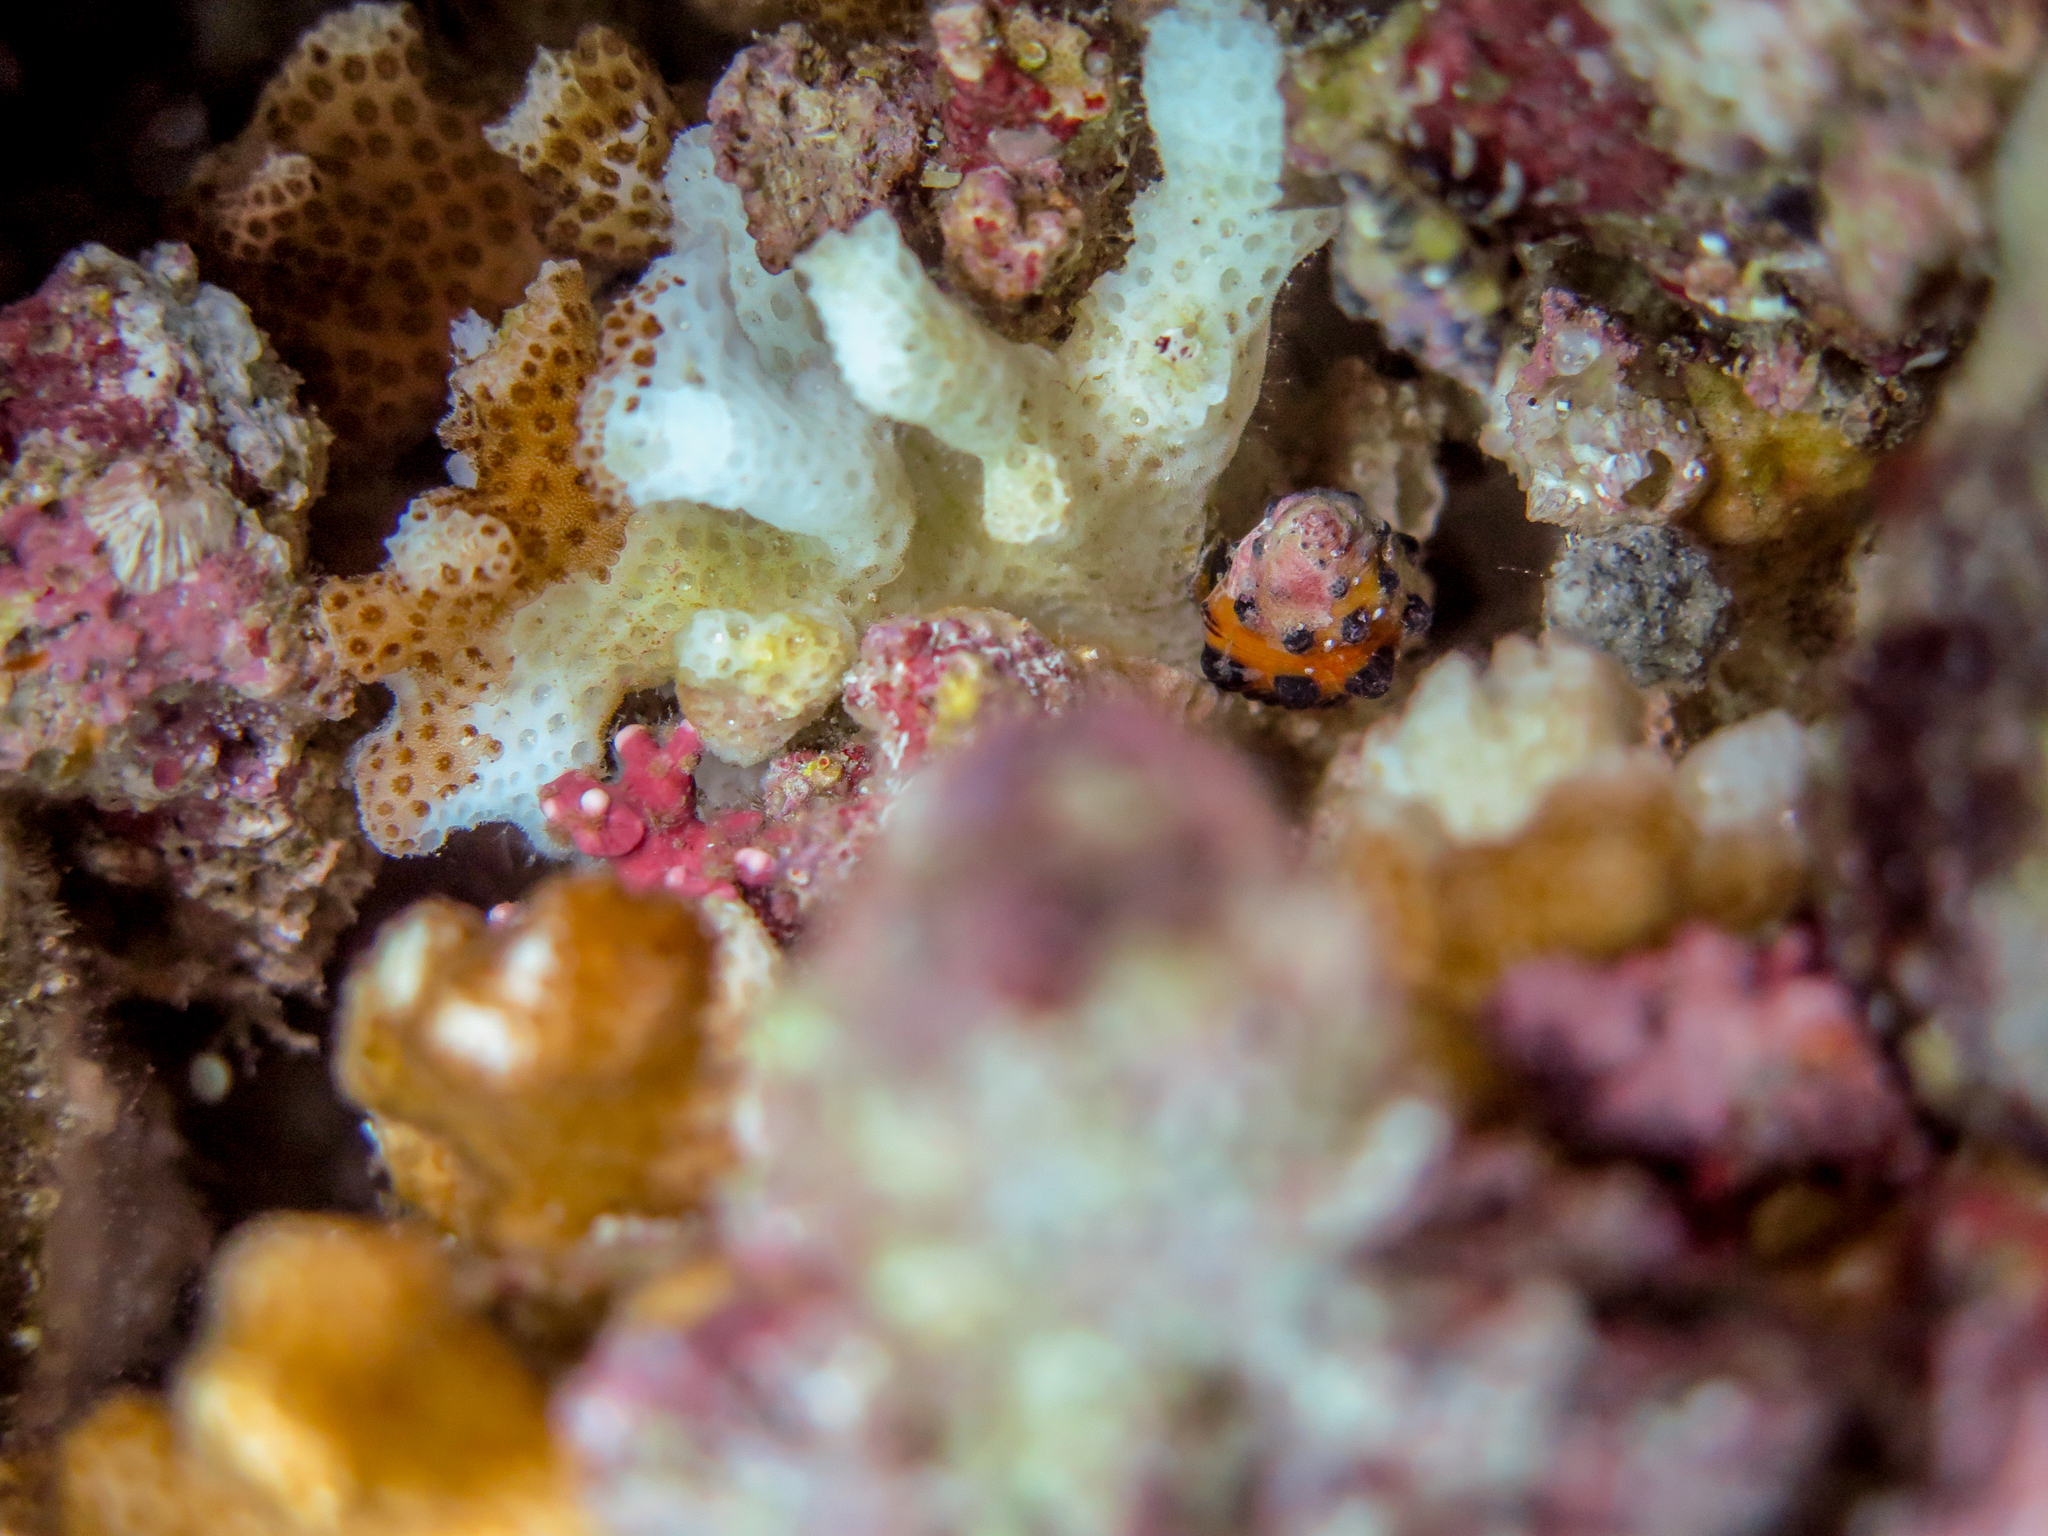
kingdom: Animalia
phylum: Mollusca
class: Gastropoda
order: Neogastropoda
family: Pisaniidae
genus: Engina
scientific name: Engina tabogaensis
